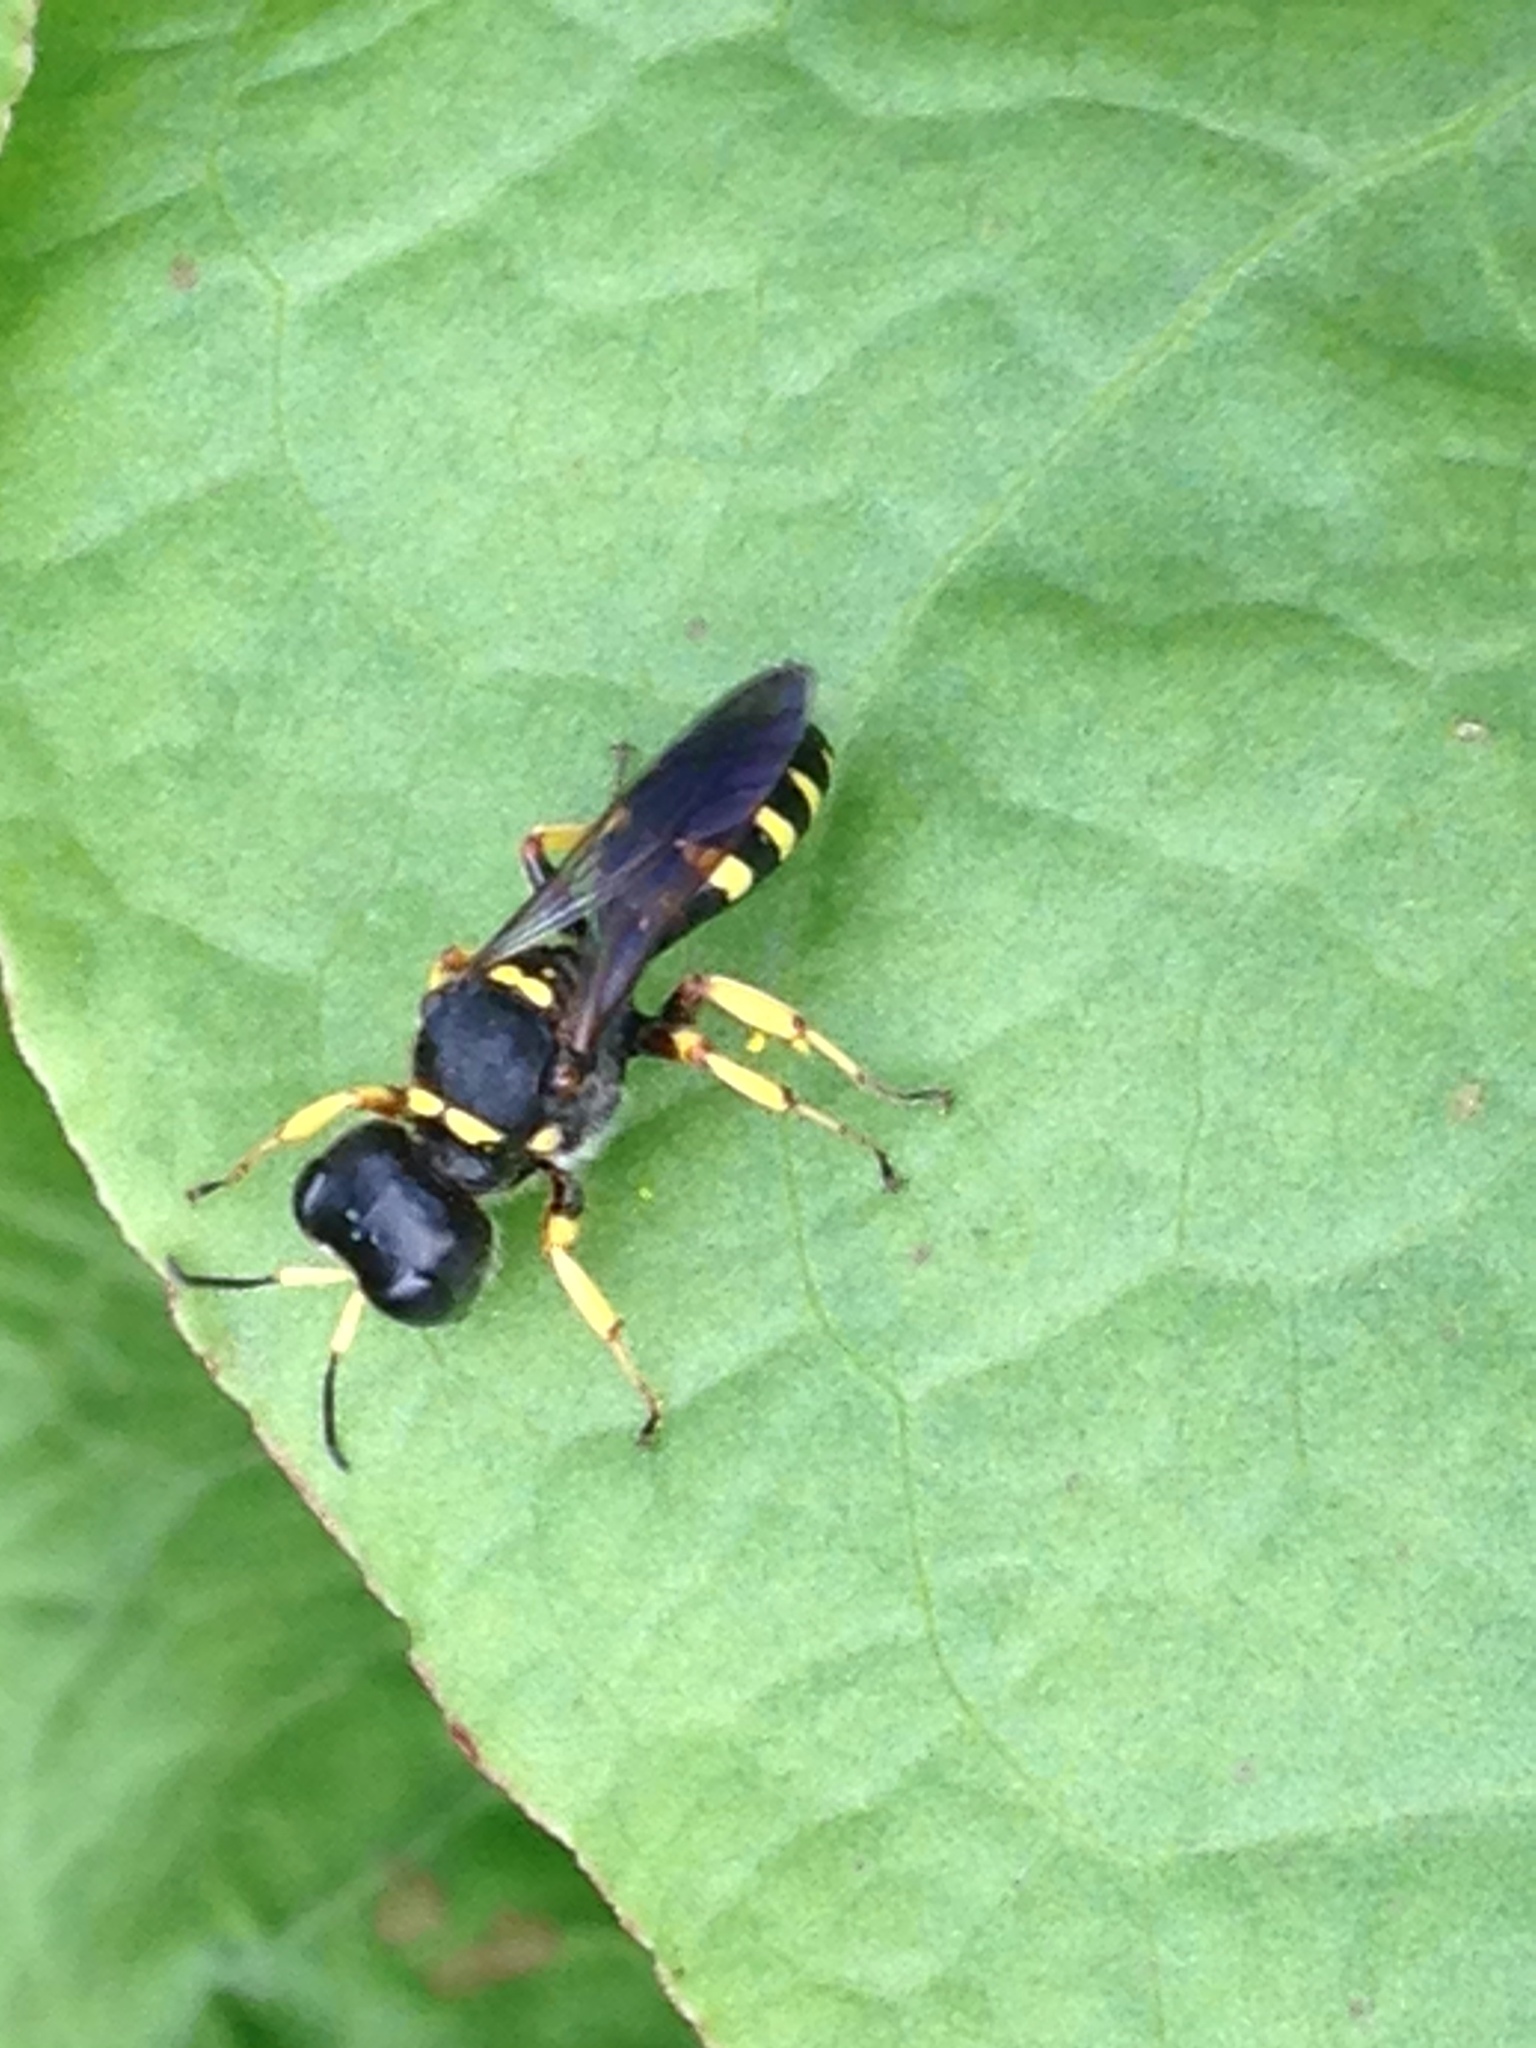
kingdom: Animalia
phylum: Arthropoda
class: Insecta
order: Hymenoptera
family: Crabronidae
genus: Ectemnius
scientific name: Ectemnius maculosus
